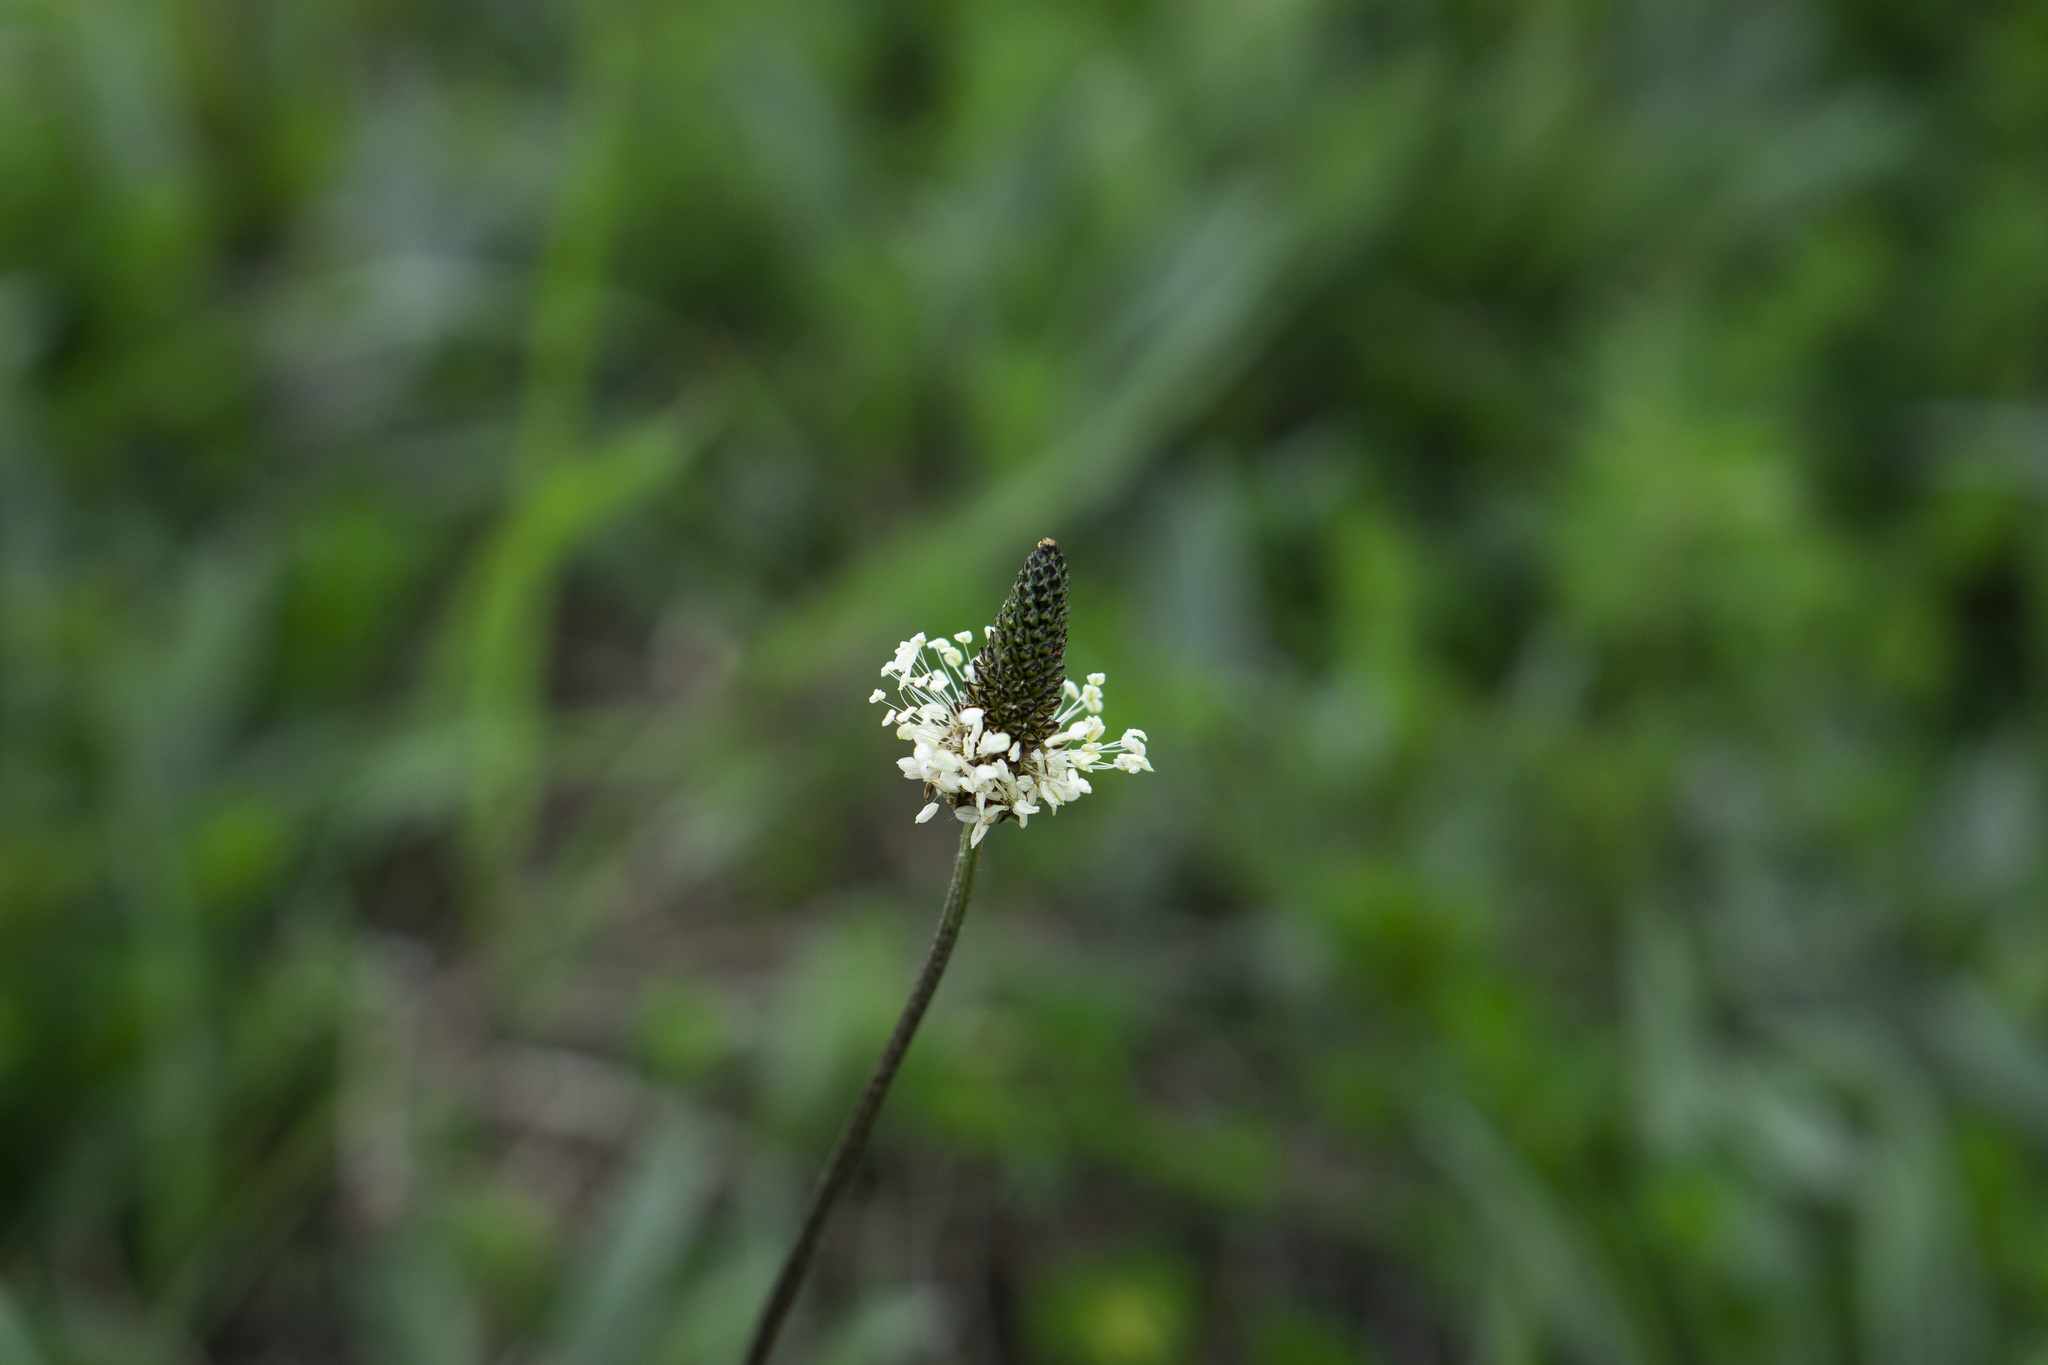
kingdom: Plantae
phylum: Tracheophyta
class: Magnoliopsida
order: Lamiales
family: Plantaginaceae
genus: Plantago
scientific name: Plantago lanceolata
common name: Ribwort plantain
